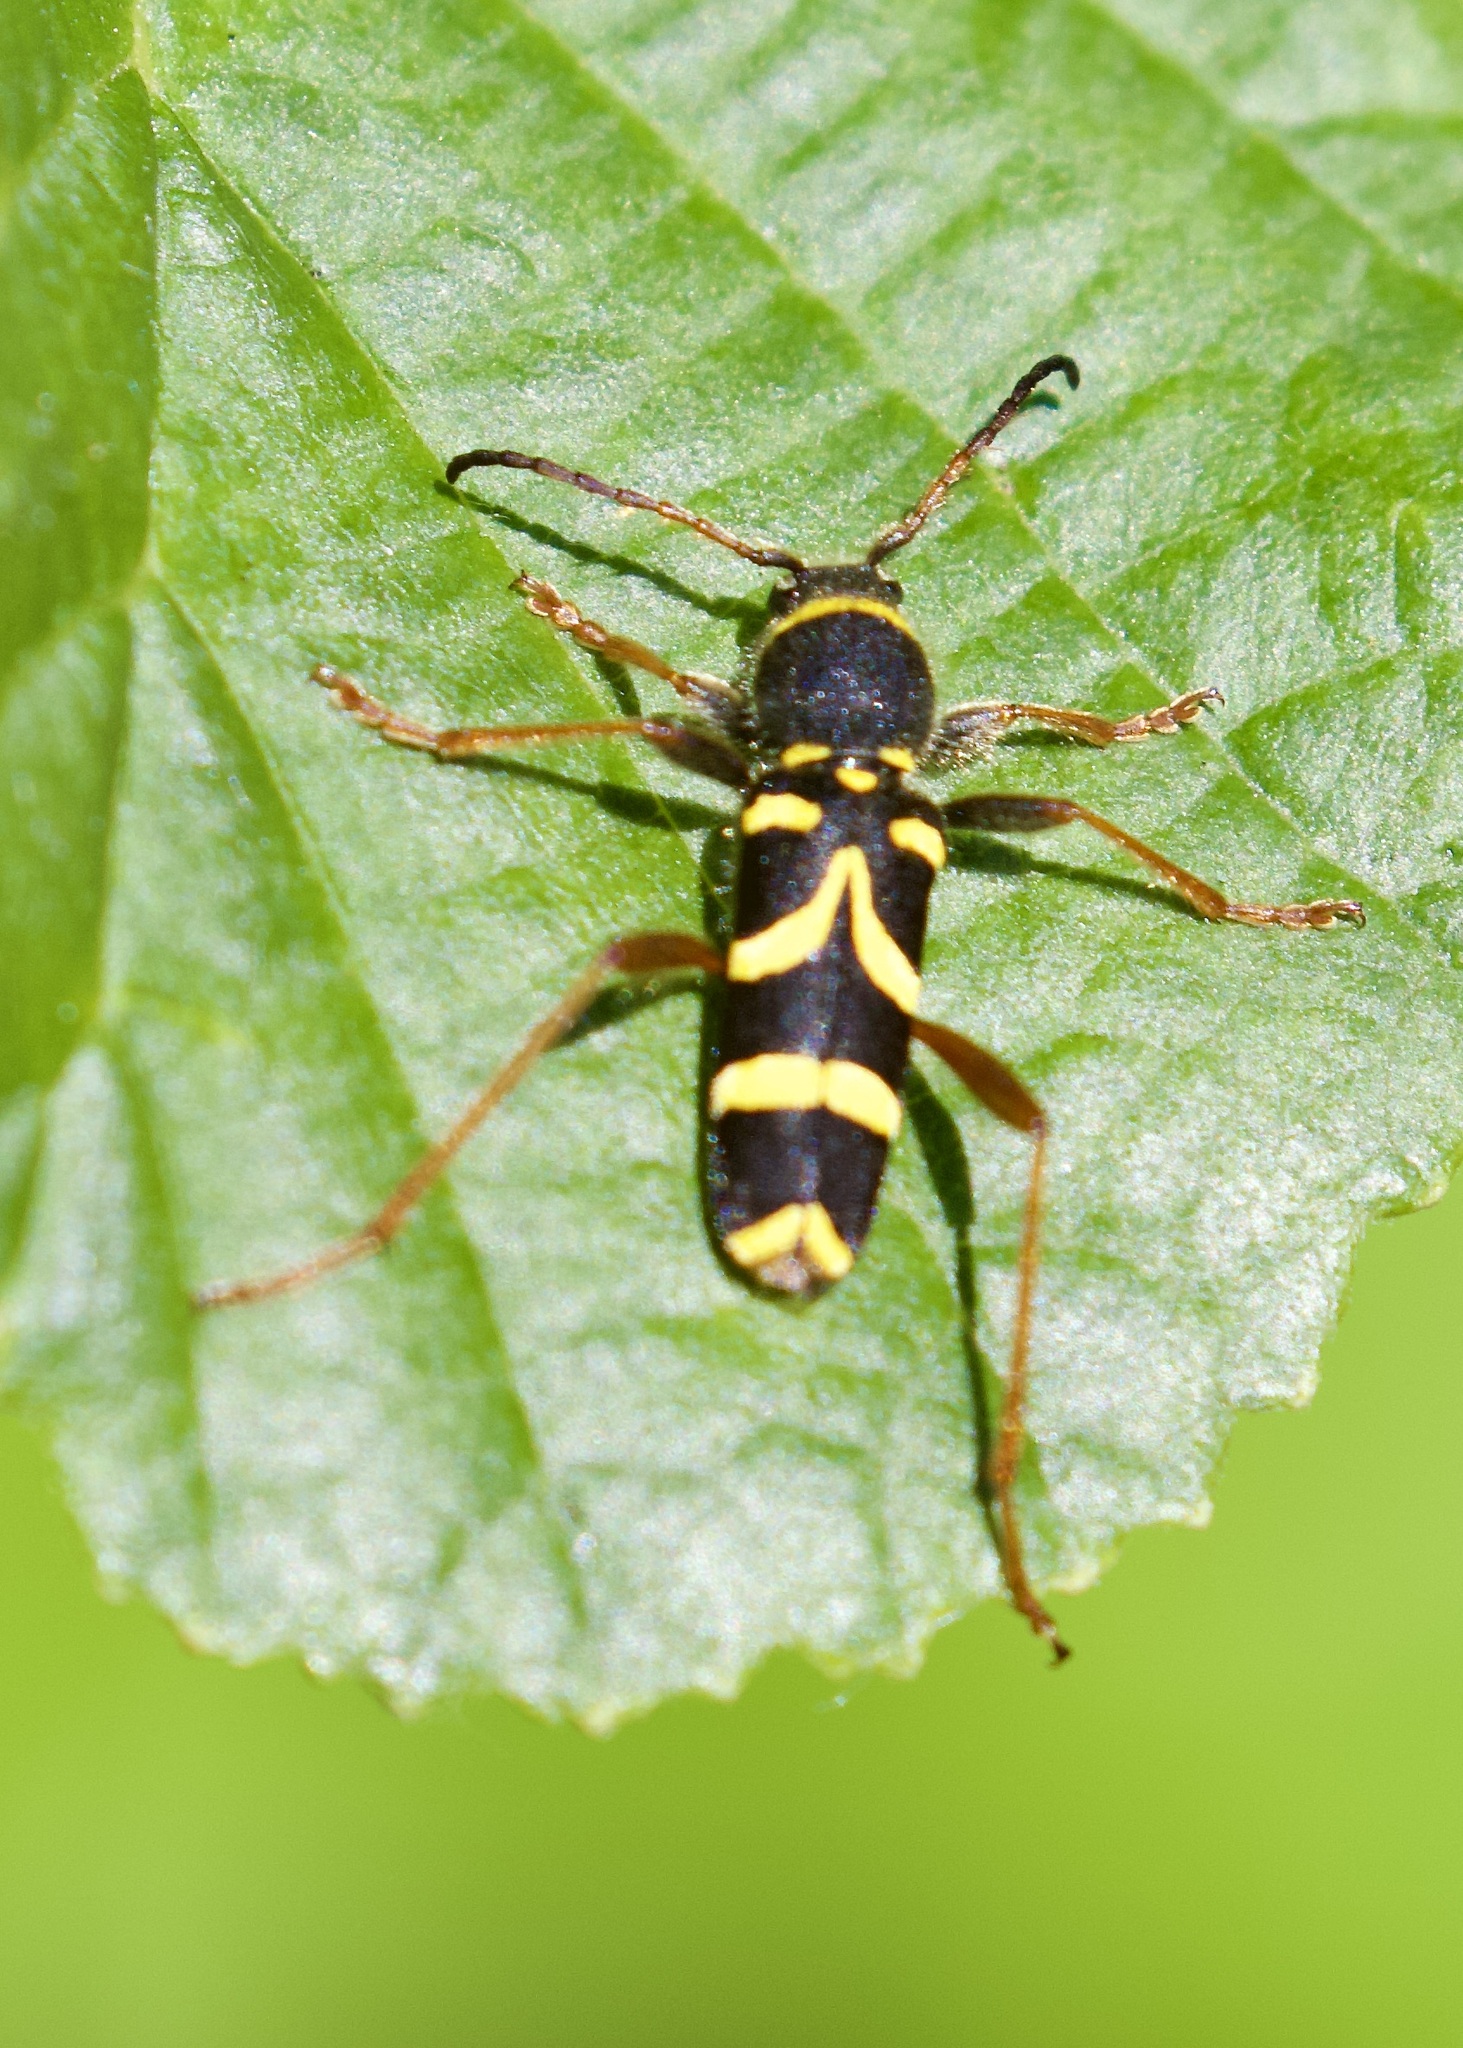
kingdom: Animalia
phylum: Arthropoda
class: Insecta
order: Coleoptera
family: Cerambycidae
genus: Clytus
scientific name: Clytus arietis
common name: Wasp beetle
